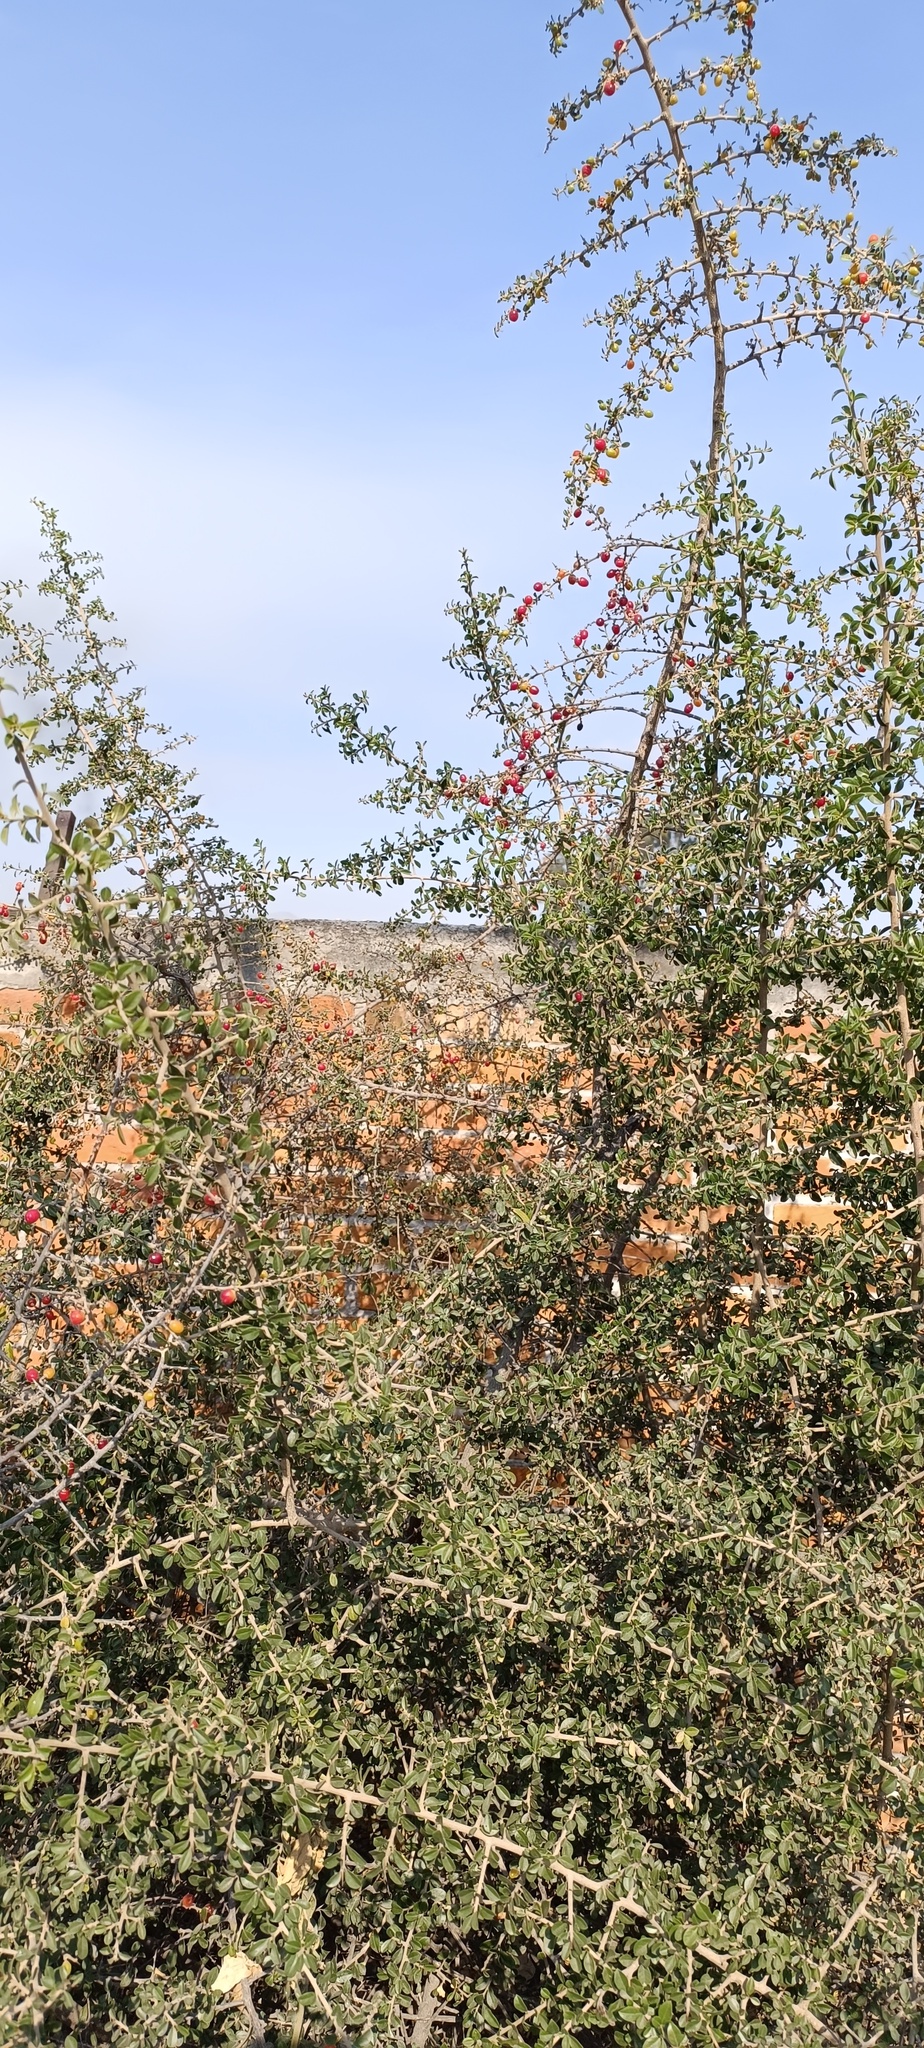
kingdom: Plantae
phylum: Tracheophyta
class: Magnoliopsida
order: Rosales
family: Rhamnaceae
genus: Condalia
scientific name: Condalia velutina
